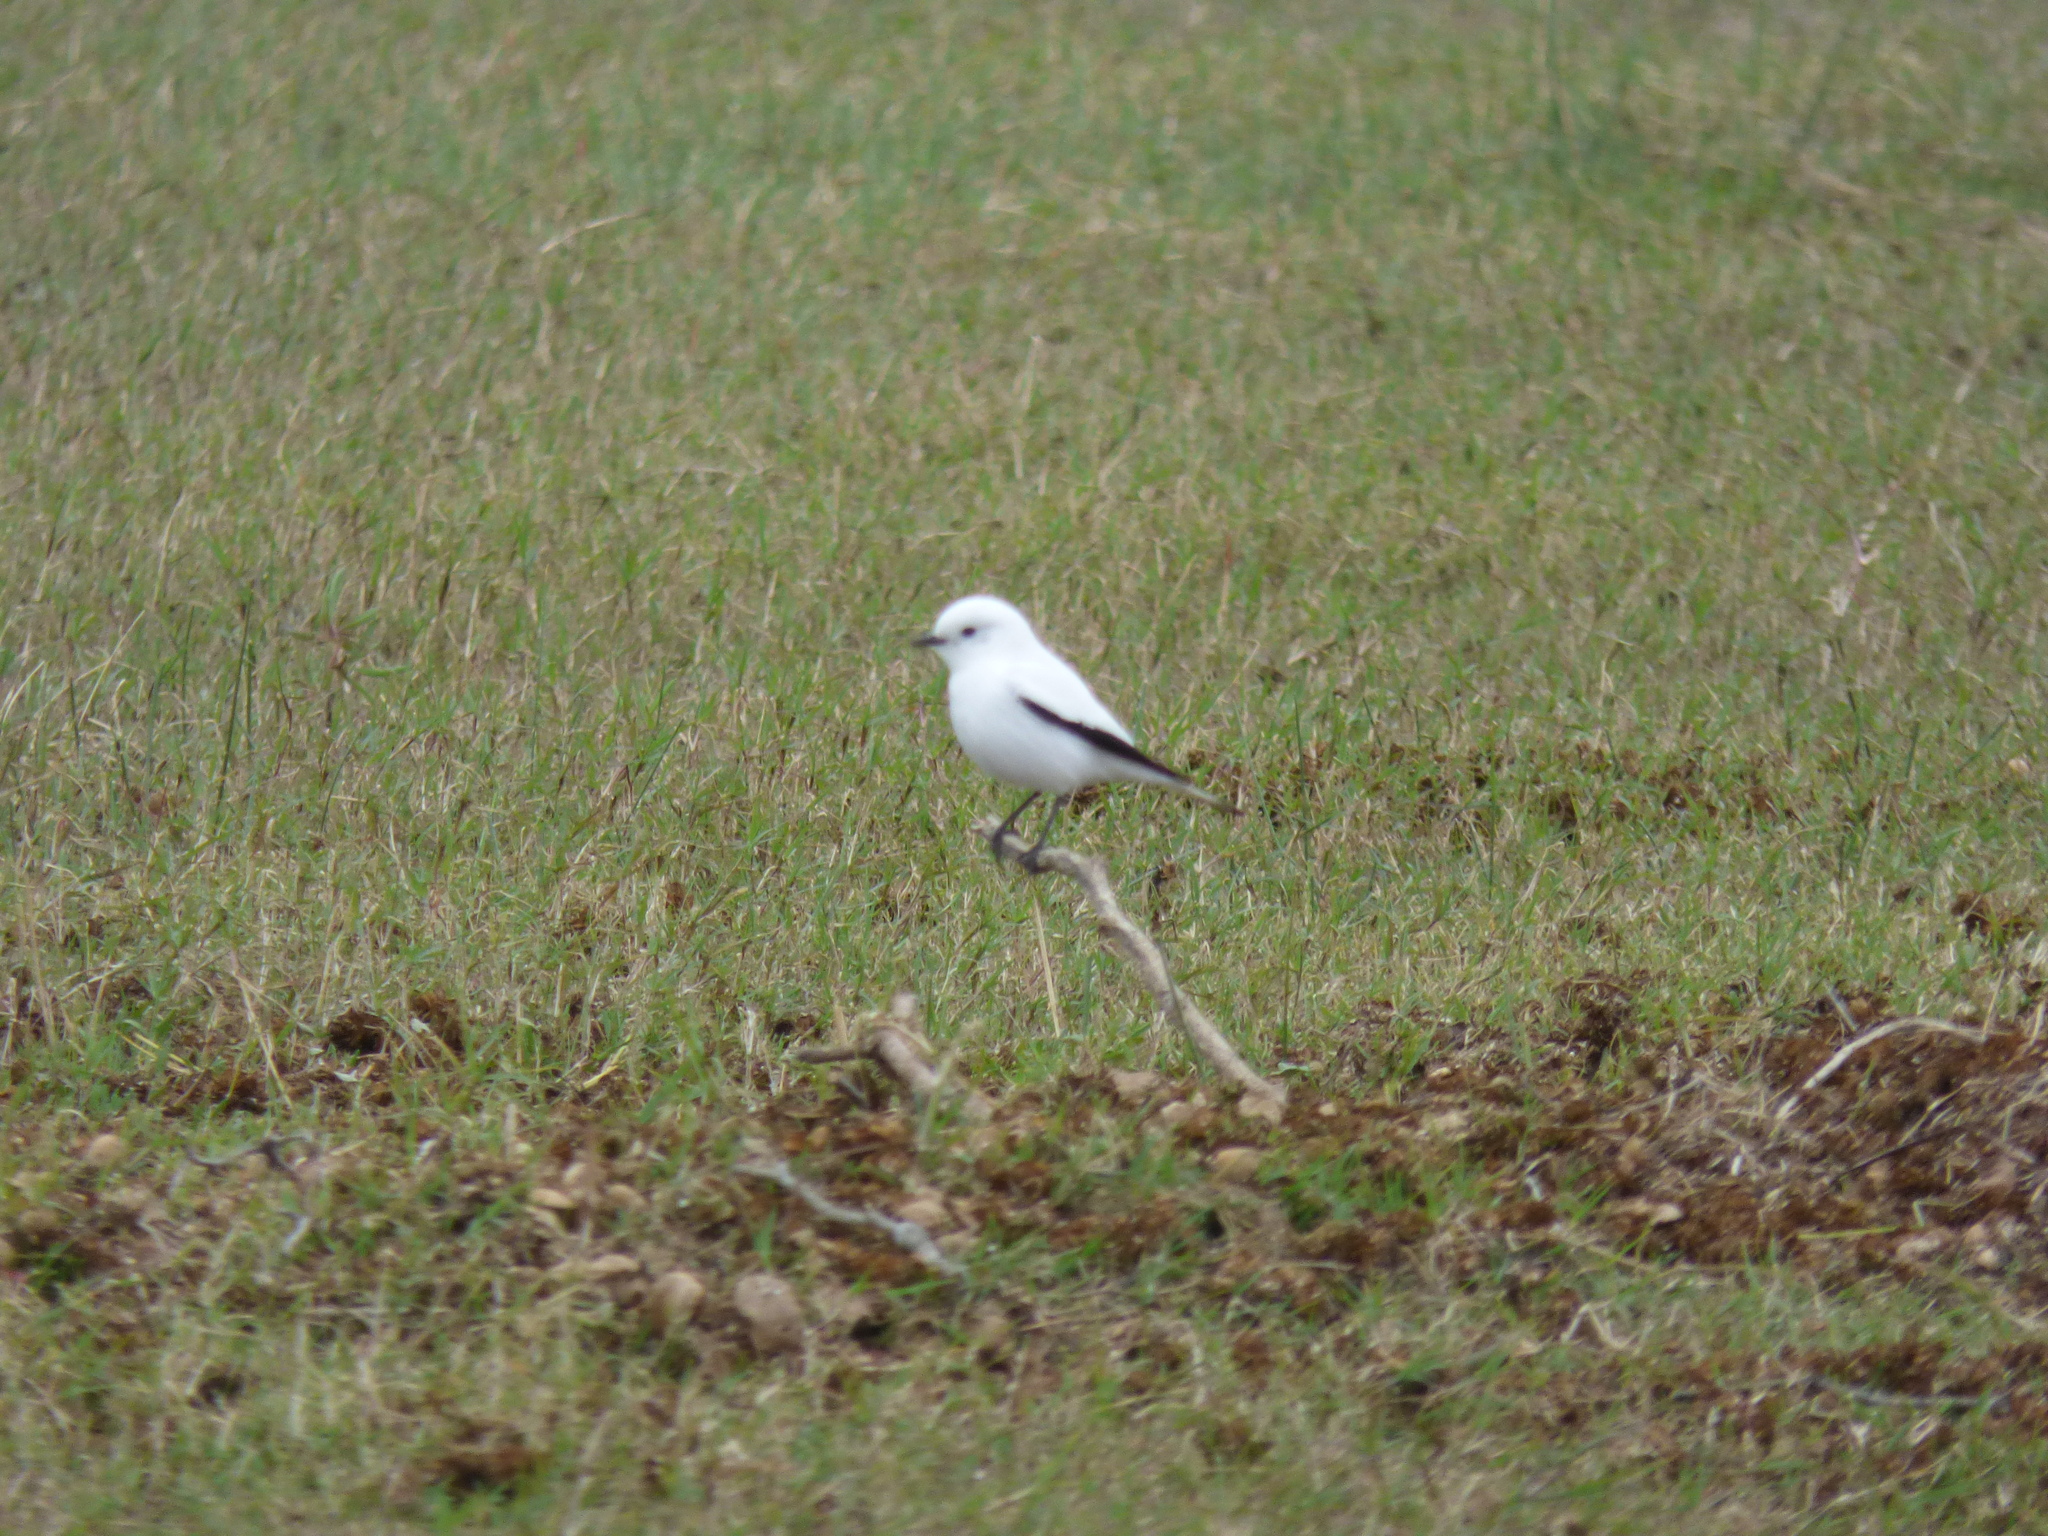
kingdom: Animalia
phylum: Chordata
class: Aves
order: Passeriformes
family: Tyrannidae
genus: Xolmis
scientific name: Xolmis irupero
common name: White monjita
